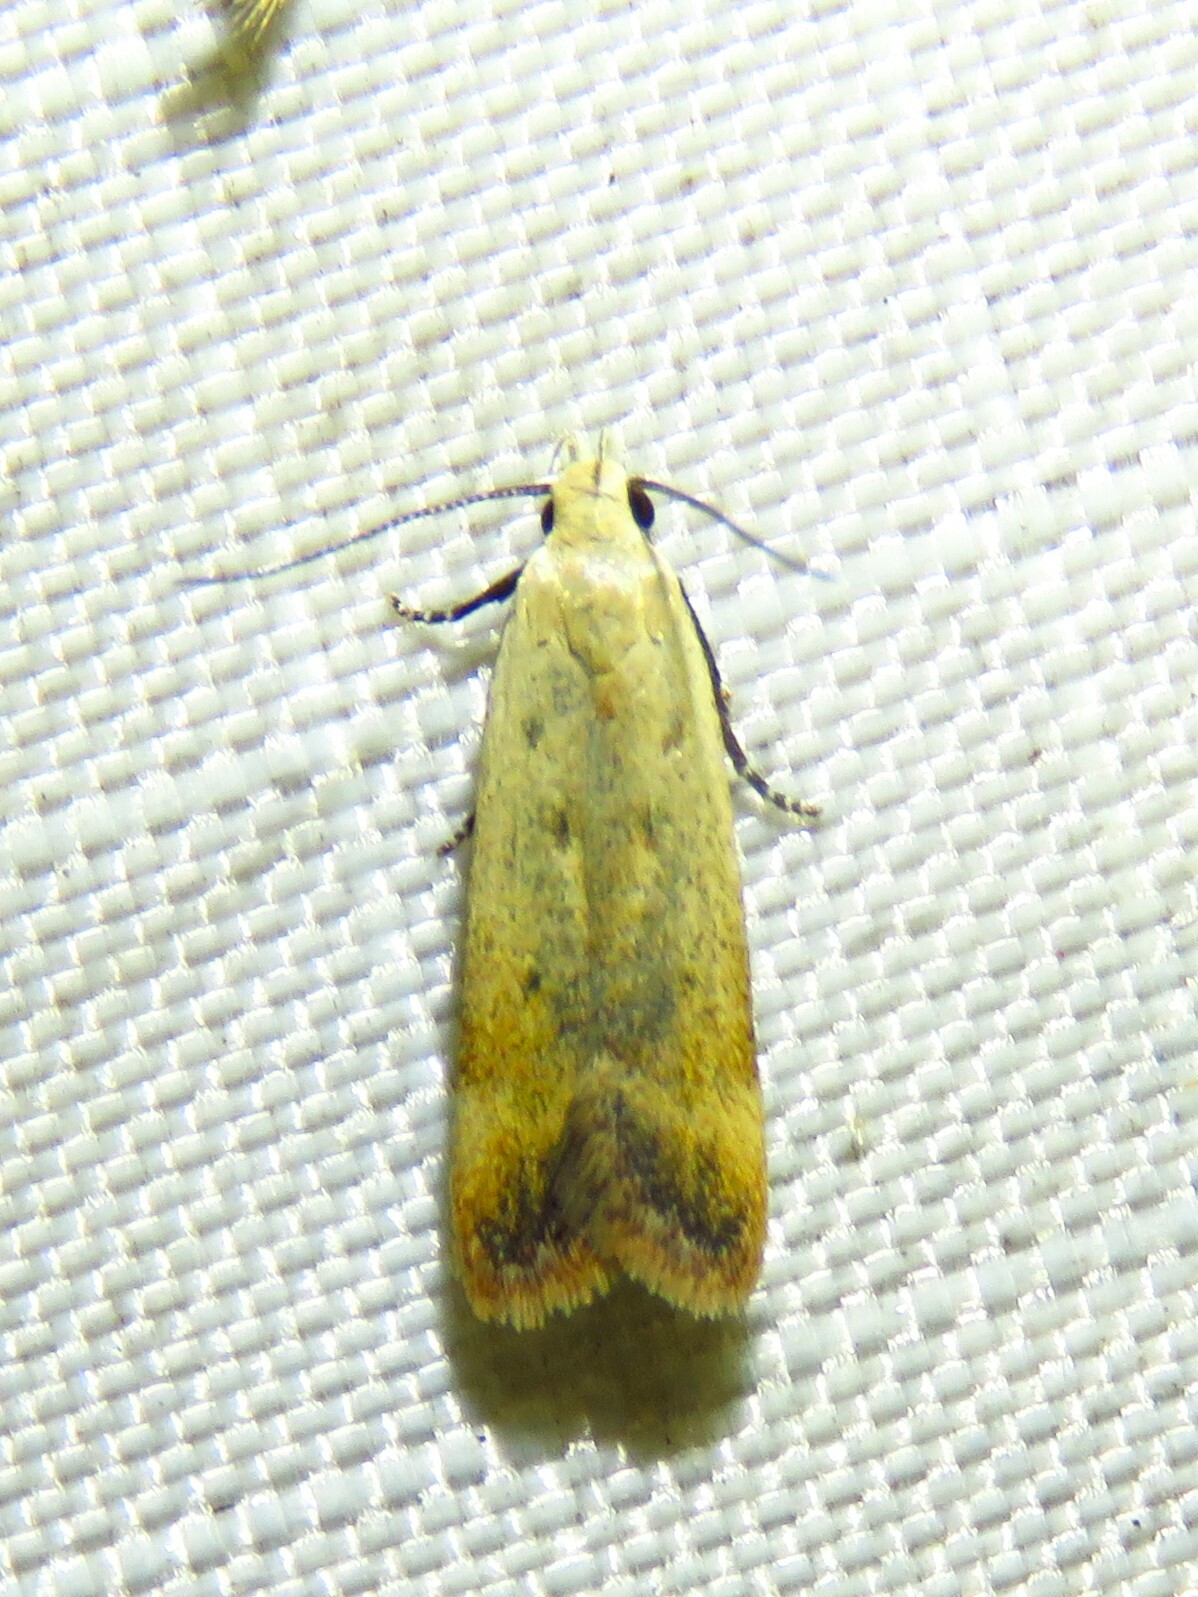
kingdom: Animalia
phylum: Arthropoda
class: Insecta
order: Lepidoptera
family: Gelechiidae
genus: Anacampsis
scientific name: Anacampsis fullonella
